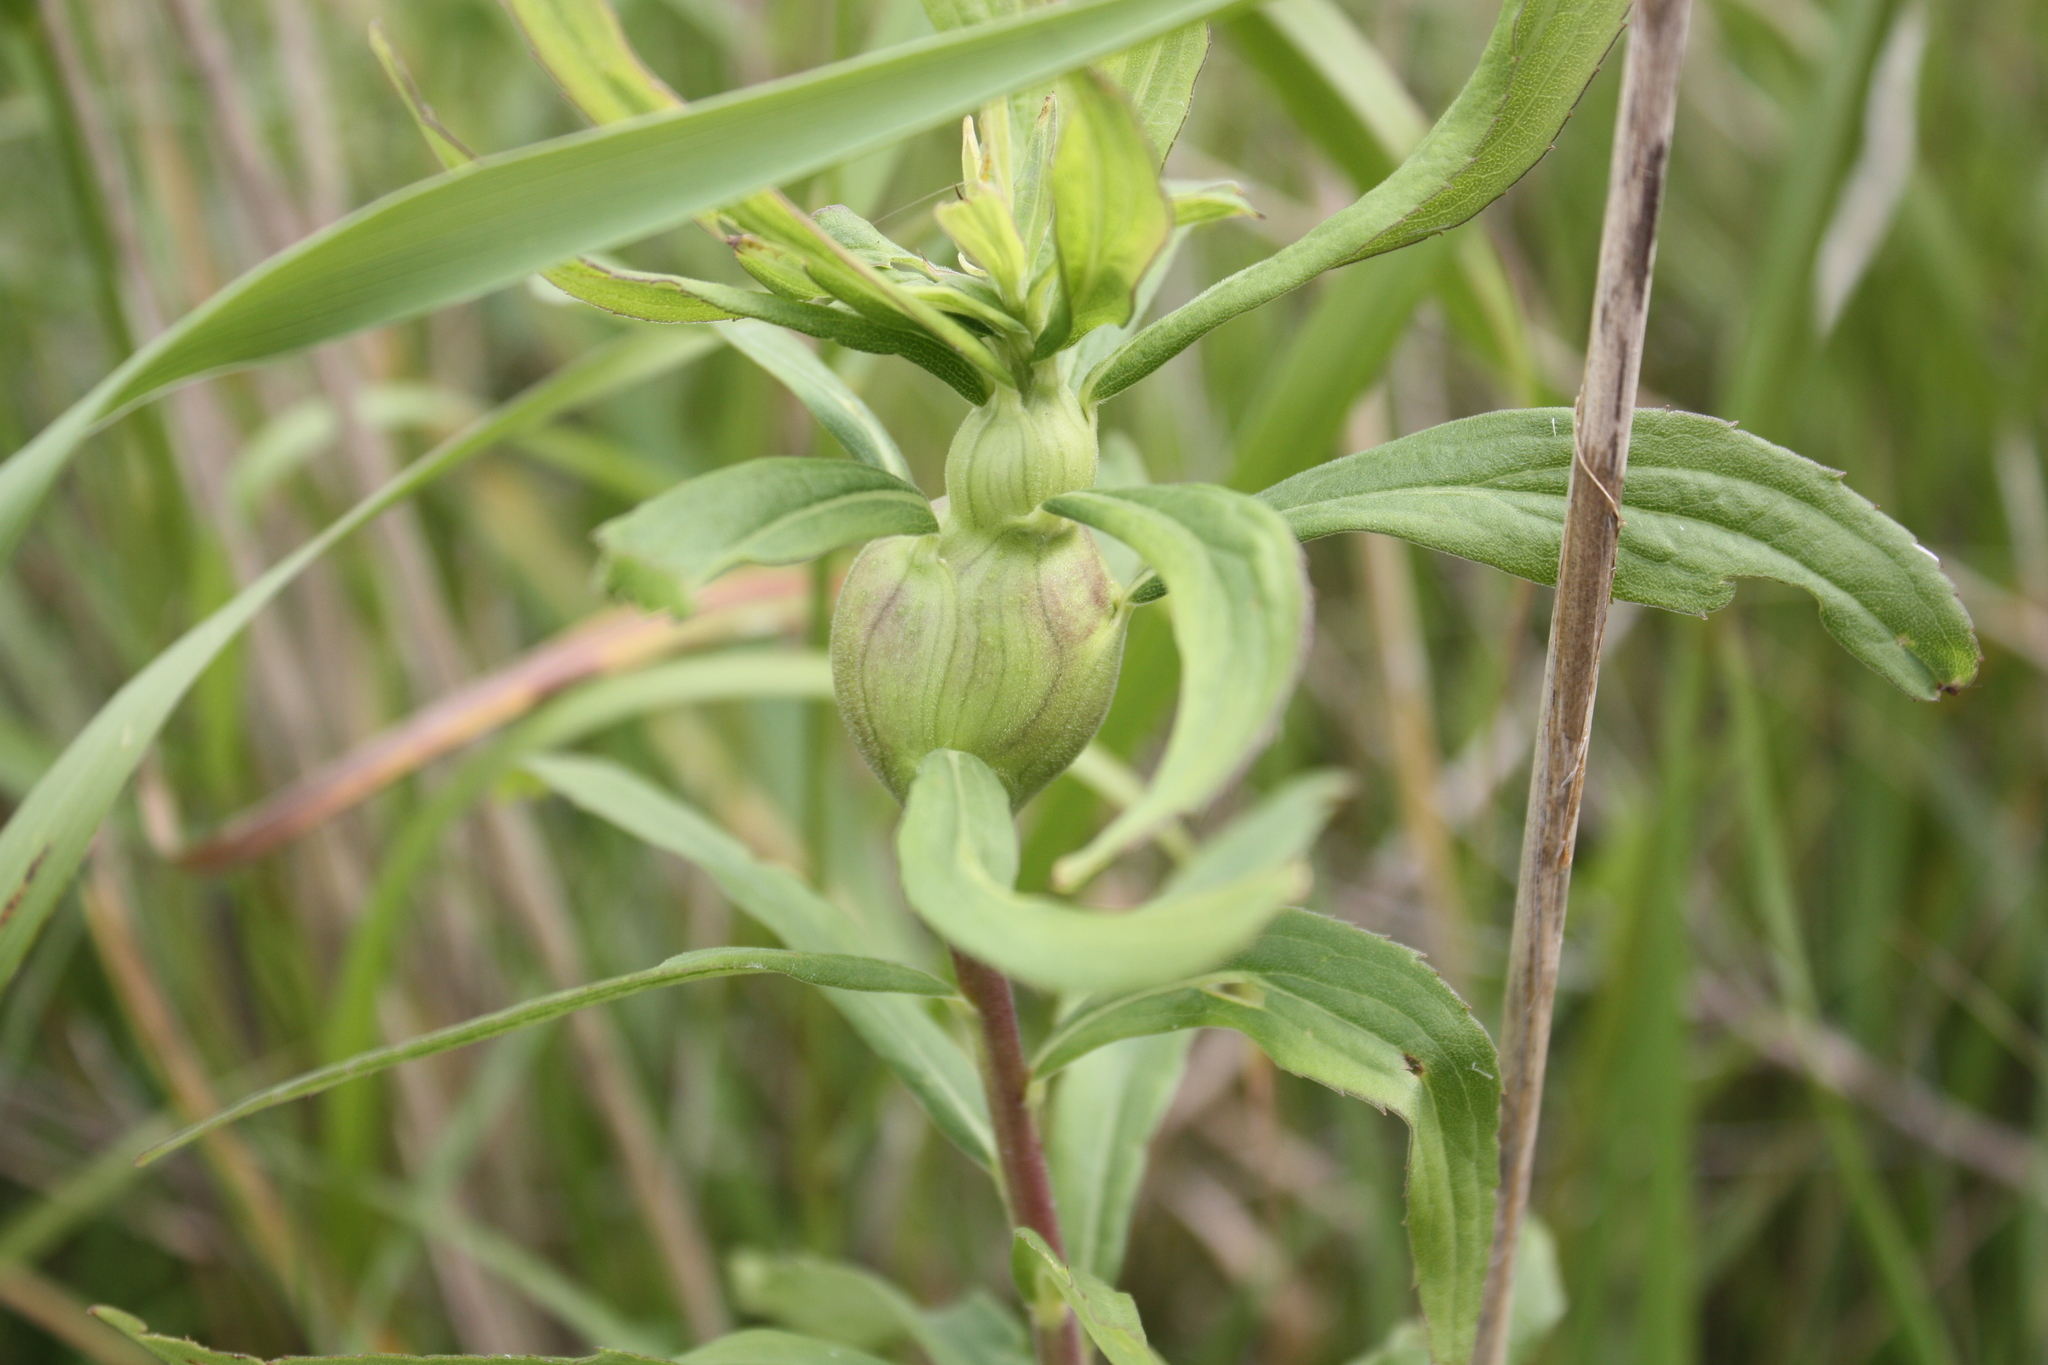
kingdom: Animalia
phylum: Arthropoda
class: Insecta
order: Diptera
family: Tephritidae
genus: Eurosta
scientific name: Eurosta solidaginis
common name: Goldenrod gall fly
